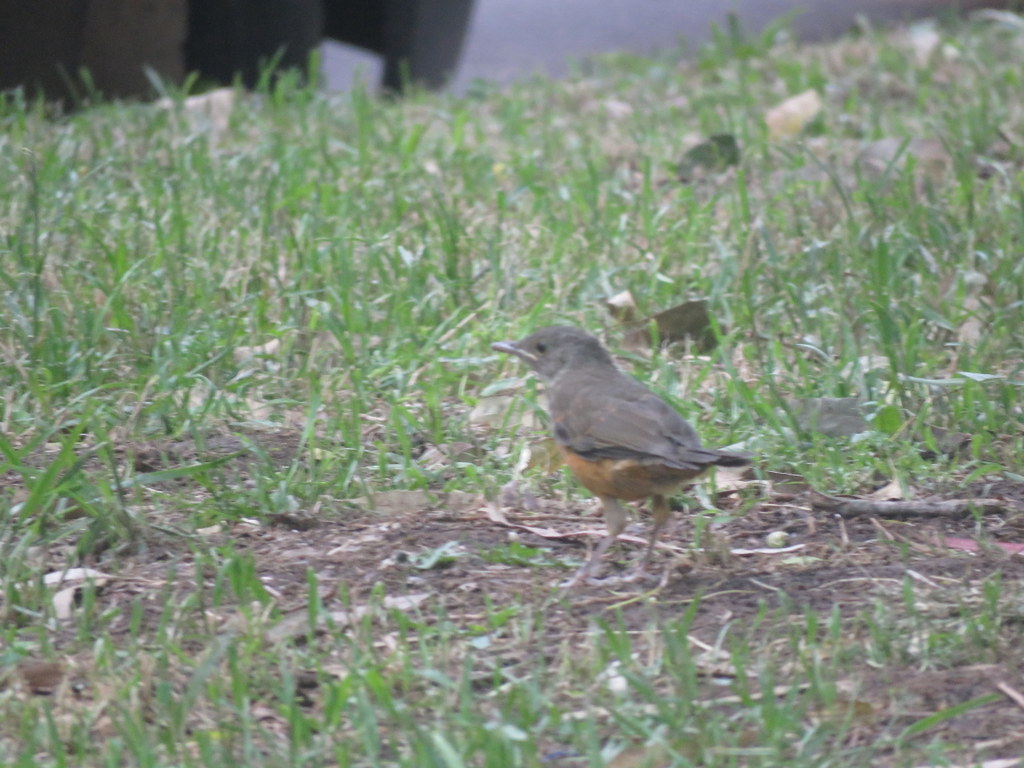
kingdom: Animalia
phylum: Chordata
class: Aves
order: Passeriformes
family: Turdidae
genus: Turdus
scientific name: Turdus rufiventris
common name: Rufous-bellied thrush
